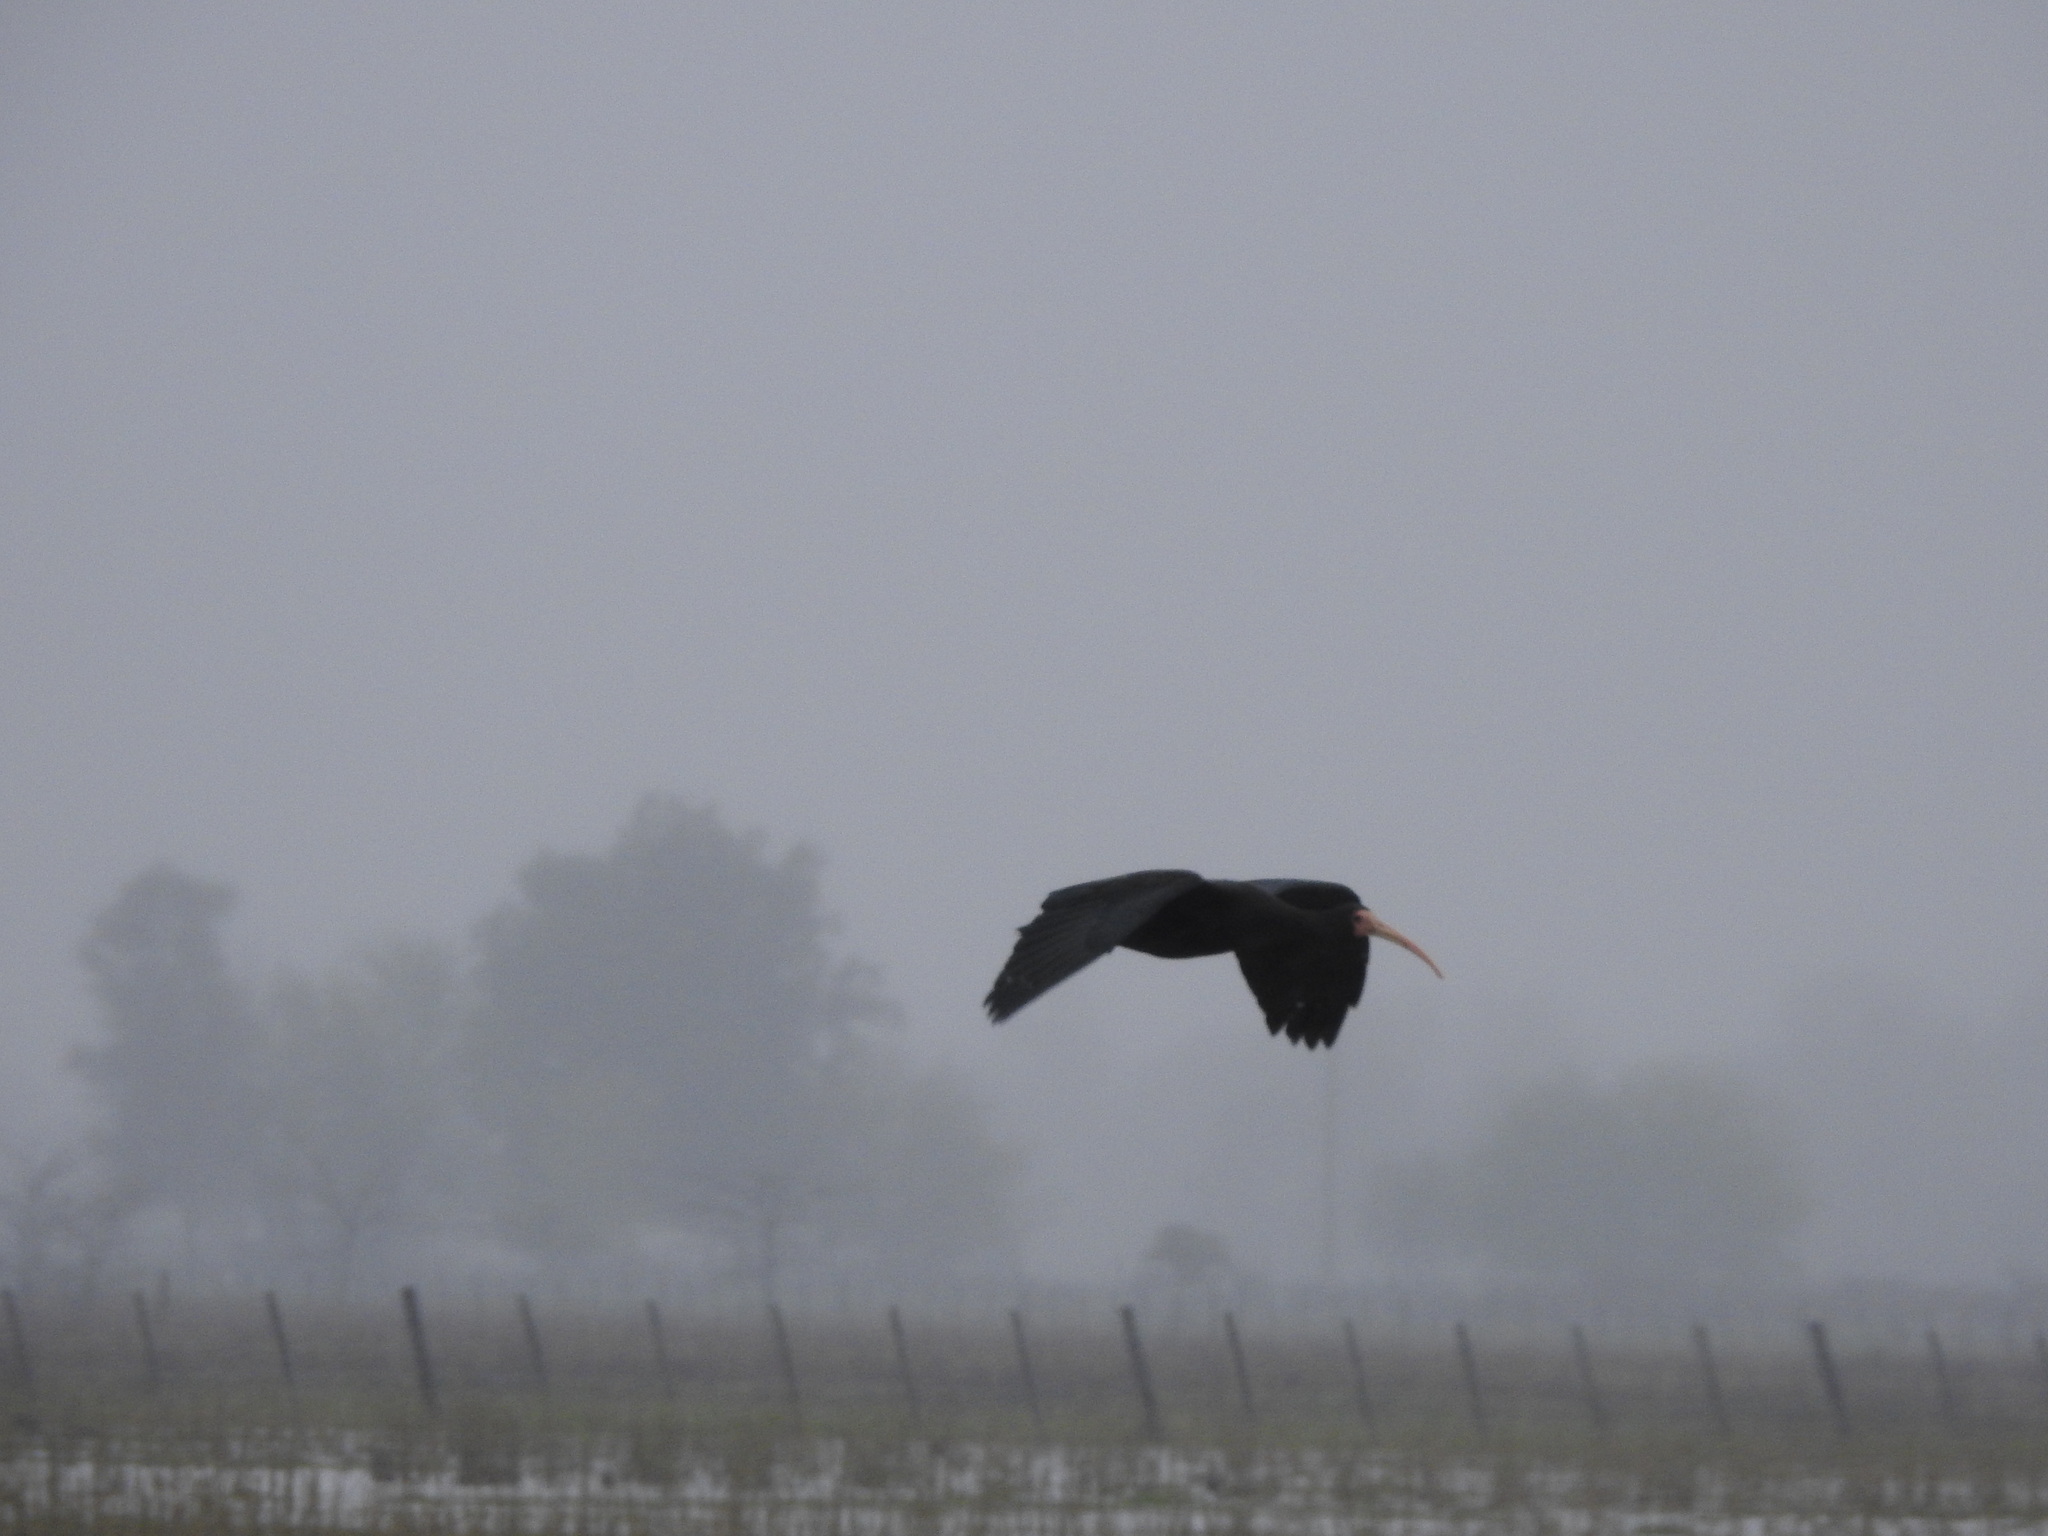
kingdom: Animalia
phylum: Chordata
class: Aves
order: Pelecaniformes
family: Threskiornithidae
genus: Phimosus
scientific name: Phimosus infuscatus
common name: Bare-faced ibis
